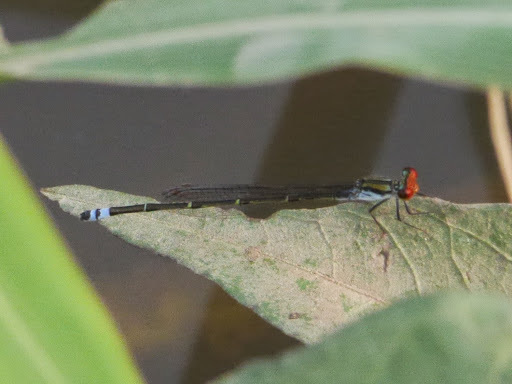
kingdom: Animalia
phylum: Arthropoda
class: Insecta
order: Odonata
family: Coenagrionidae
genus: Pseudagrion
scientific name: Pseudagrion sjoestedti
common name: Variable sprite
